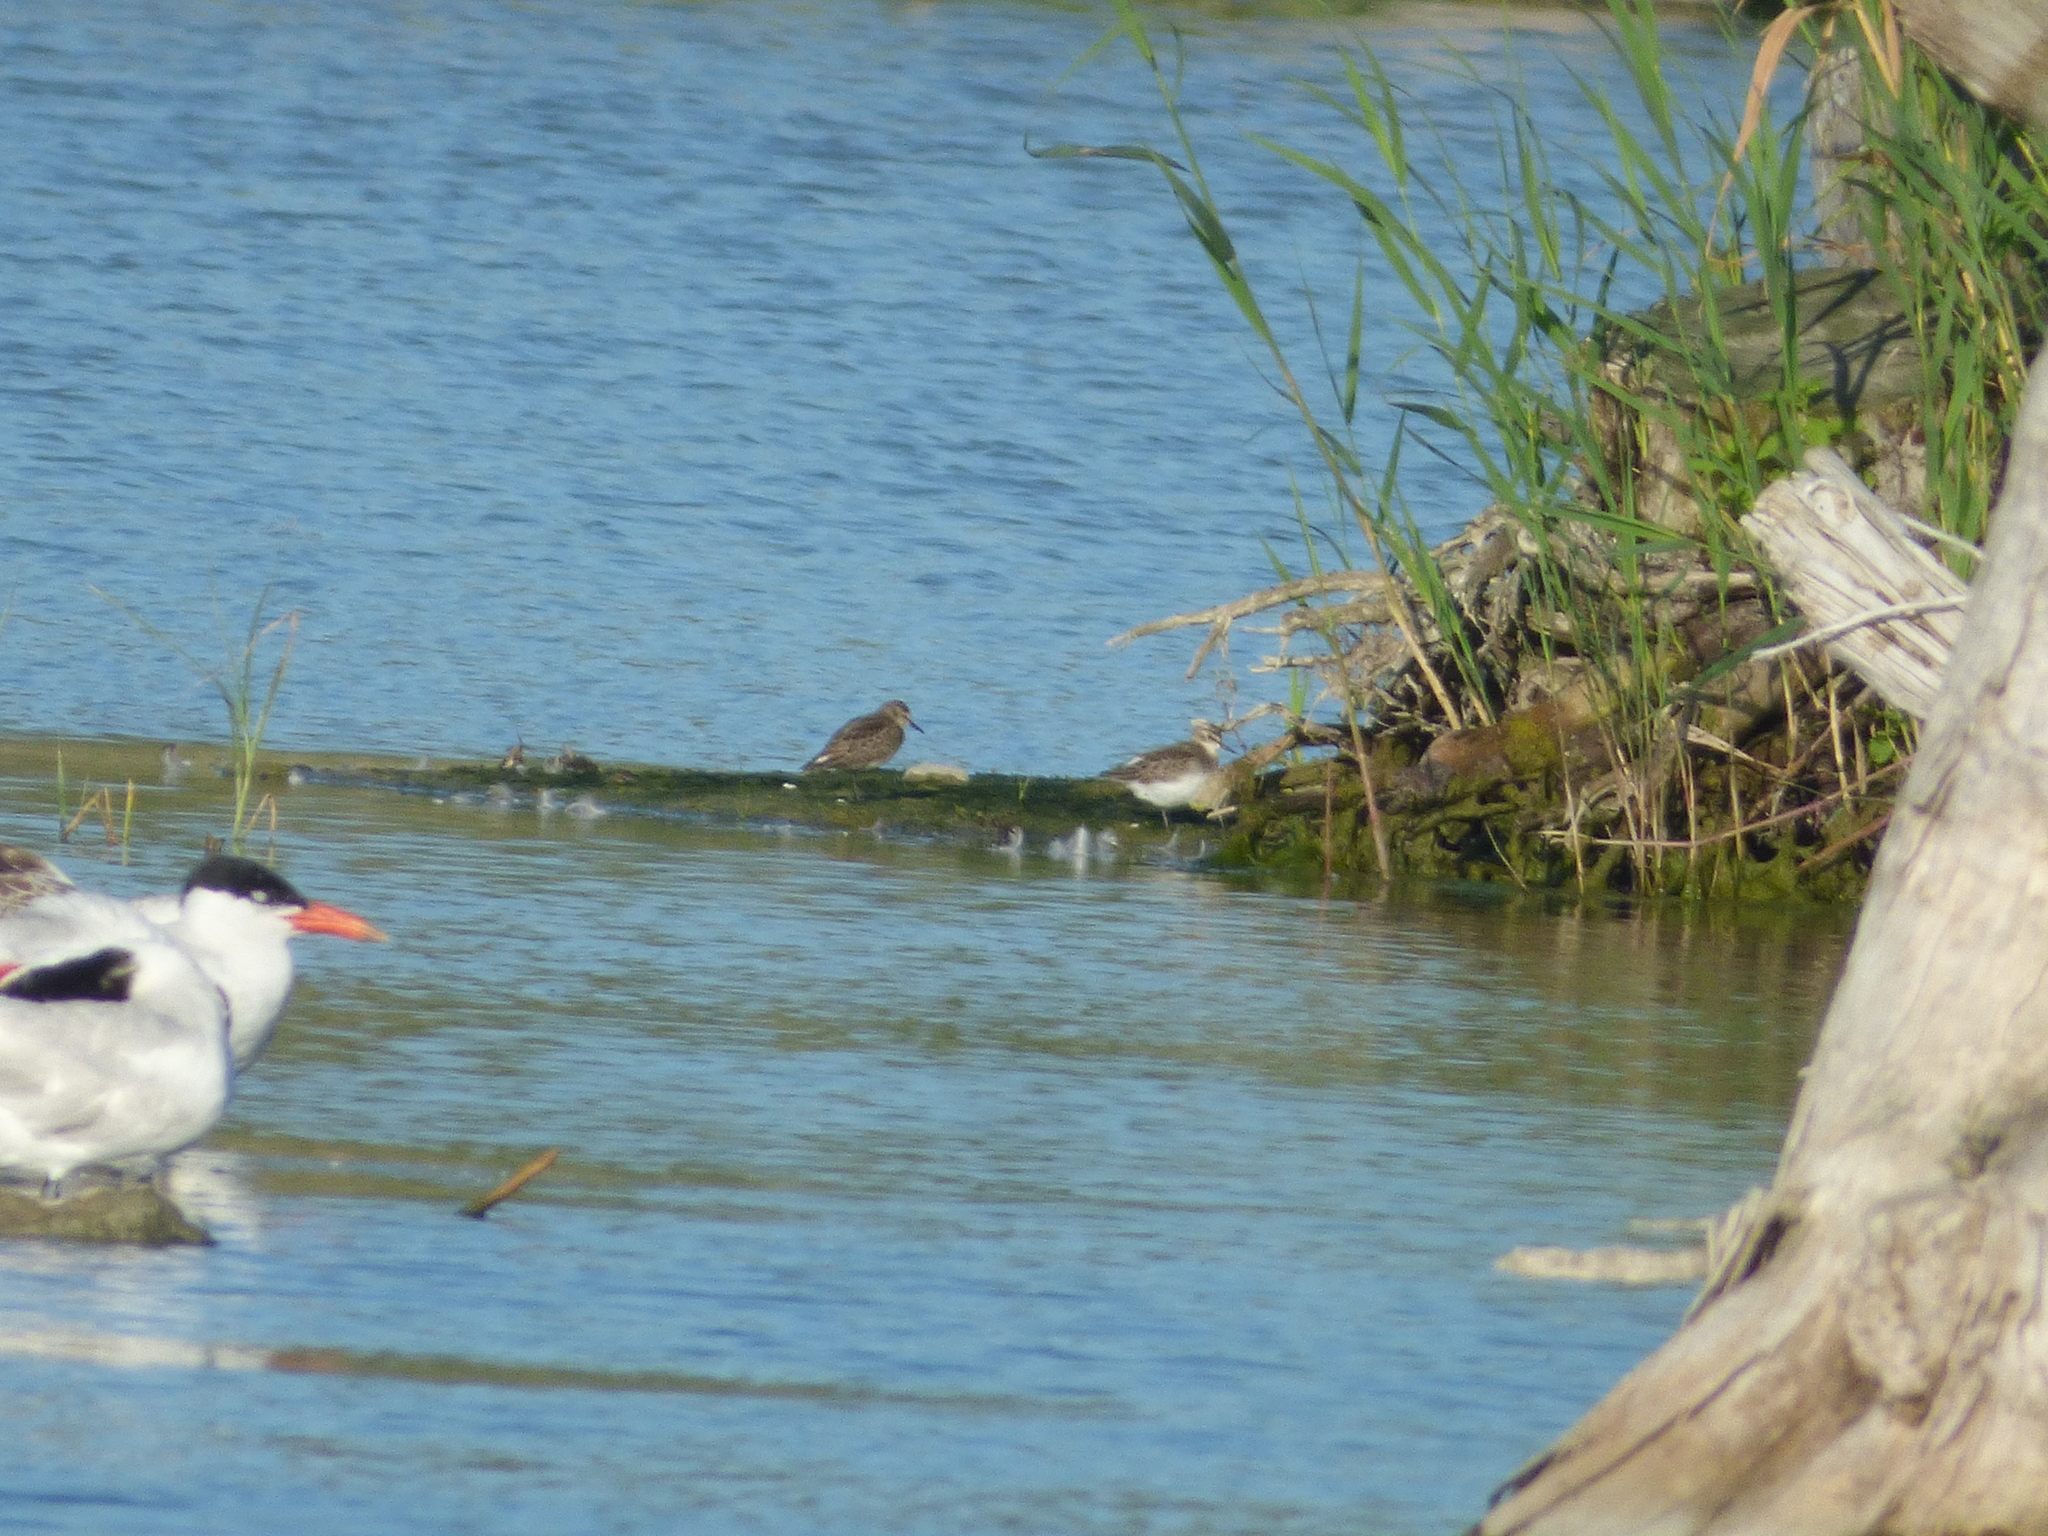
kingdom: Animalia
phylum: Chordata
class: Aves
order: Charadriiformes
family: Scolopacidae
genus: Calidris
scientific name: Calidris pusilla
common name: Semipalmated sandpiper
